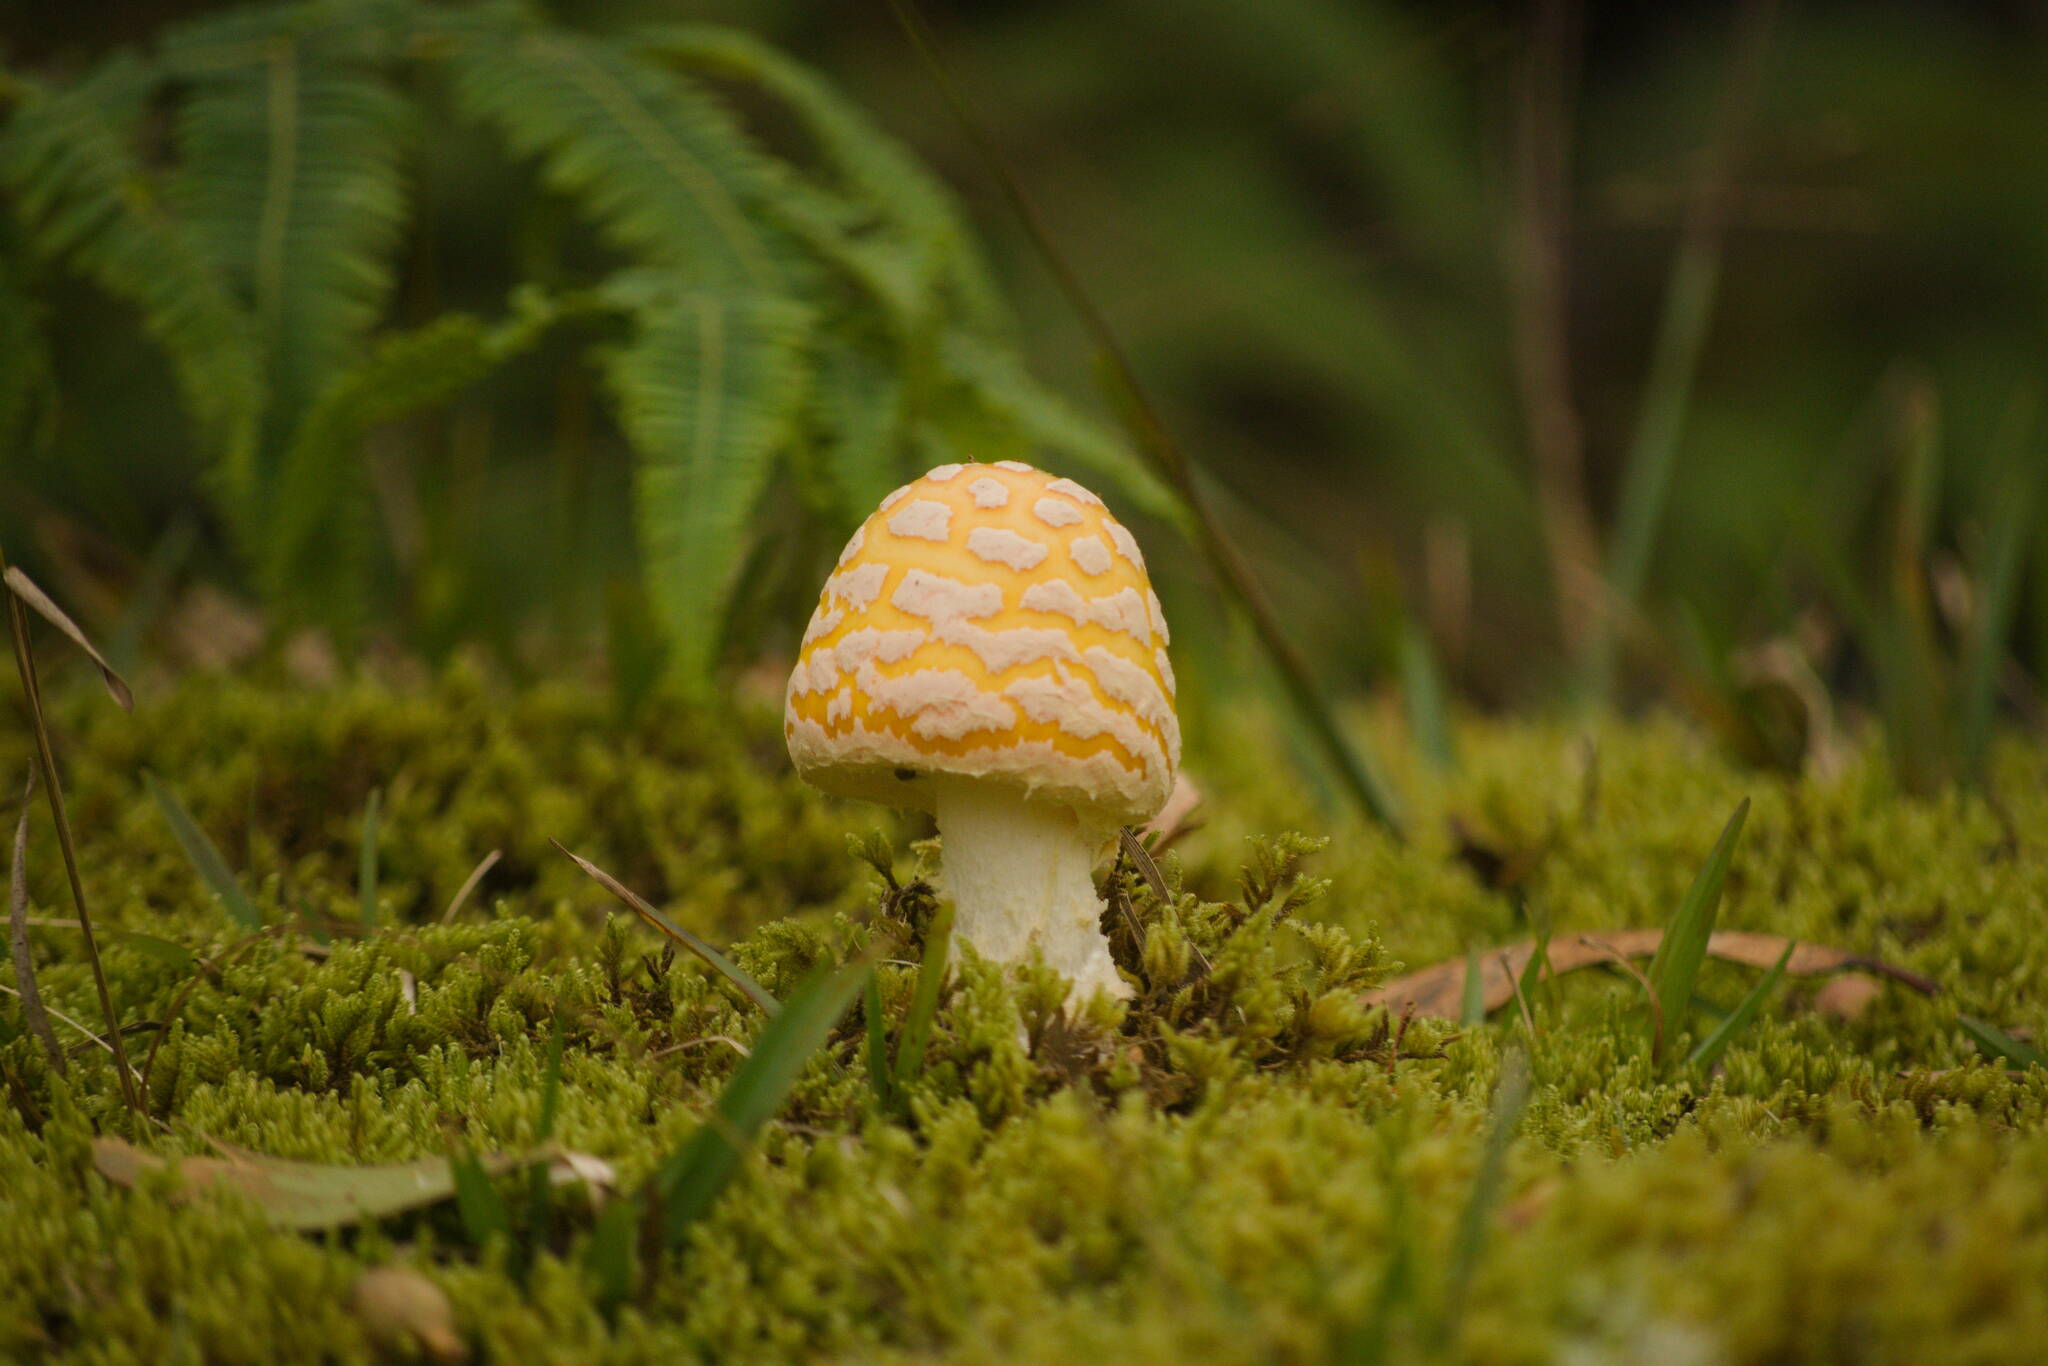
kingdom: Fungi
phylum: Basidiomycota
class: Agaricomycetes
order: Agaricales
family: Amanitaceae
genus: Amanita
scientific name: Amanita muscaria
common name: Fly agaric
